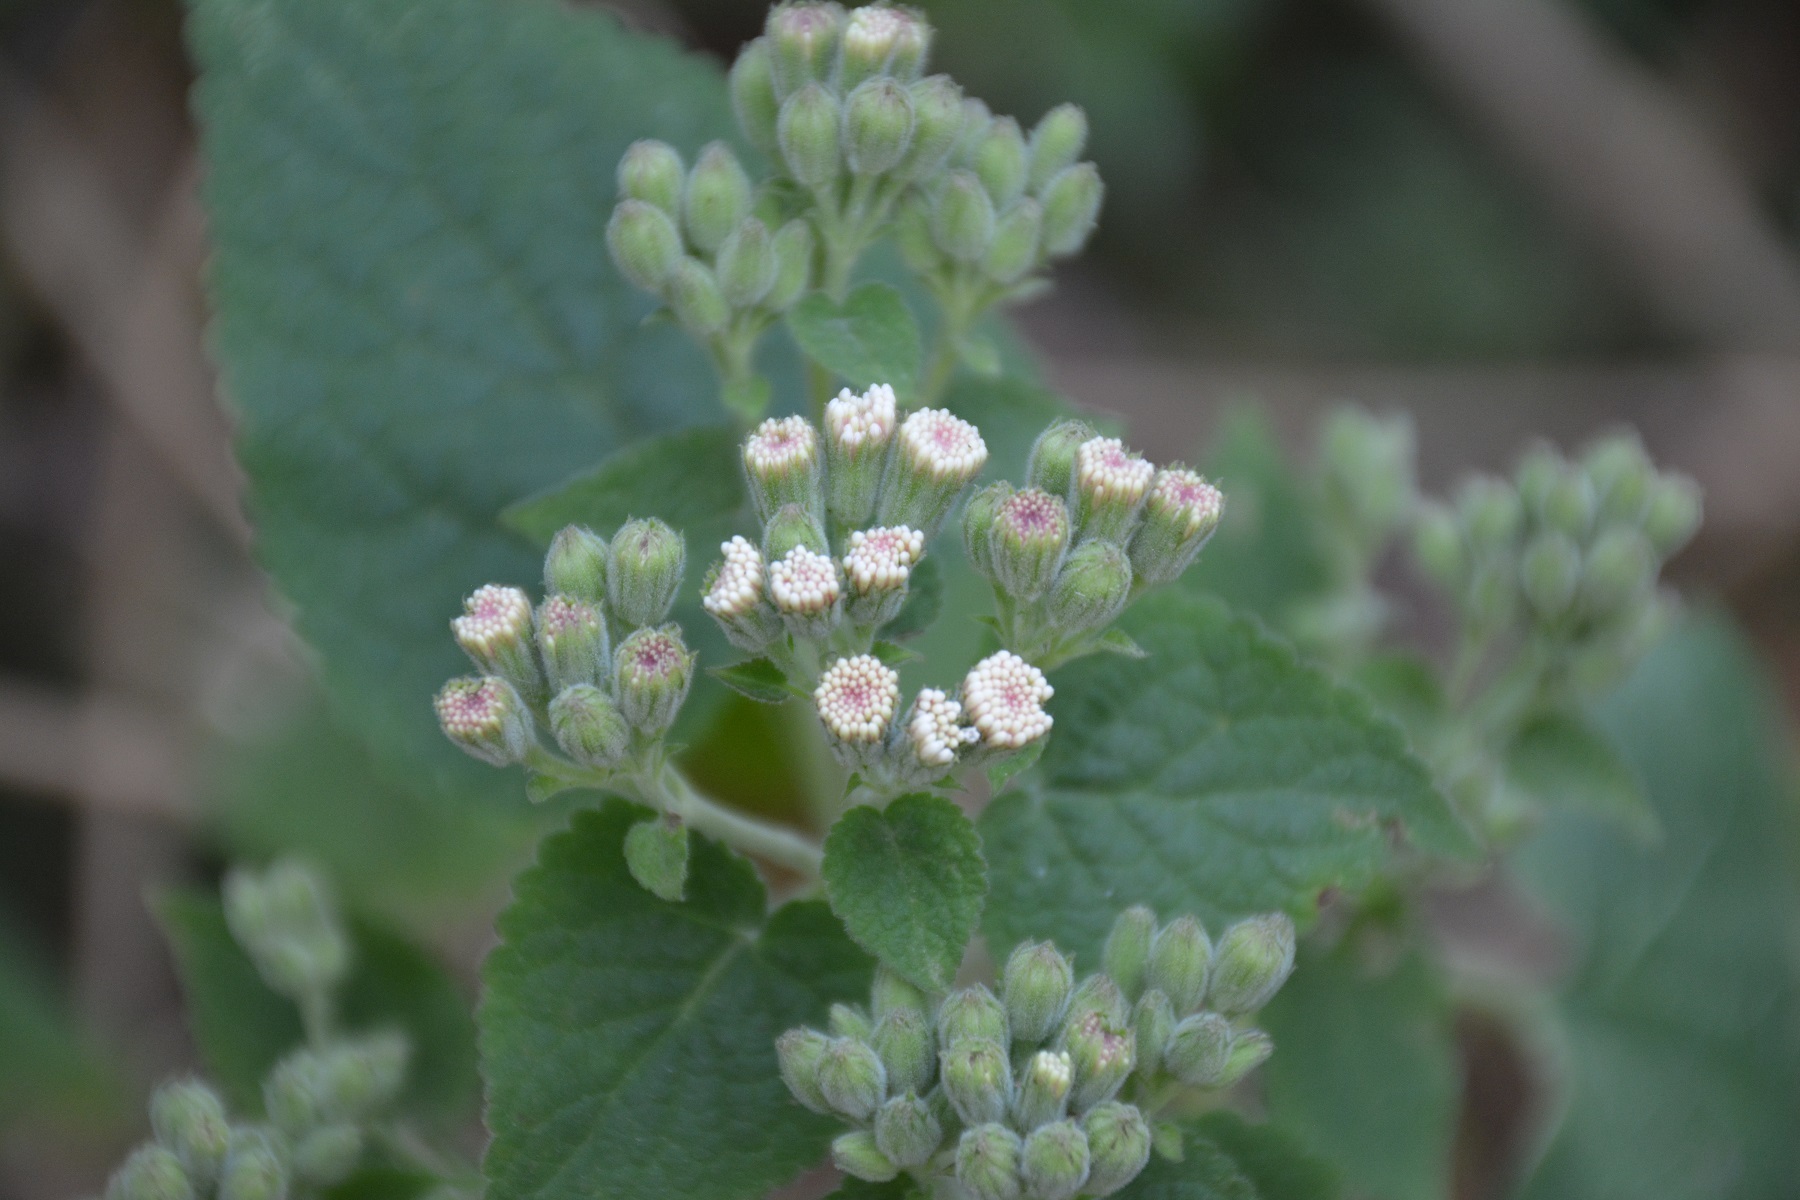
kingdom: Plantae
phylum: Tracheophyta
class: Magnoliopsida
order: Asterales
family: Asteraceae
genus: Ageratina
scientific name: Ageratina petiolaris
